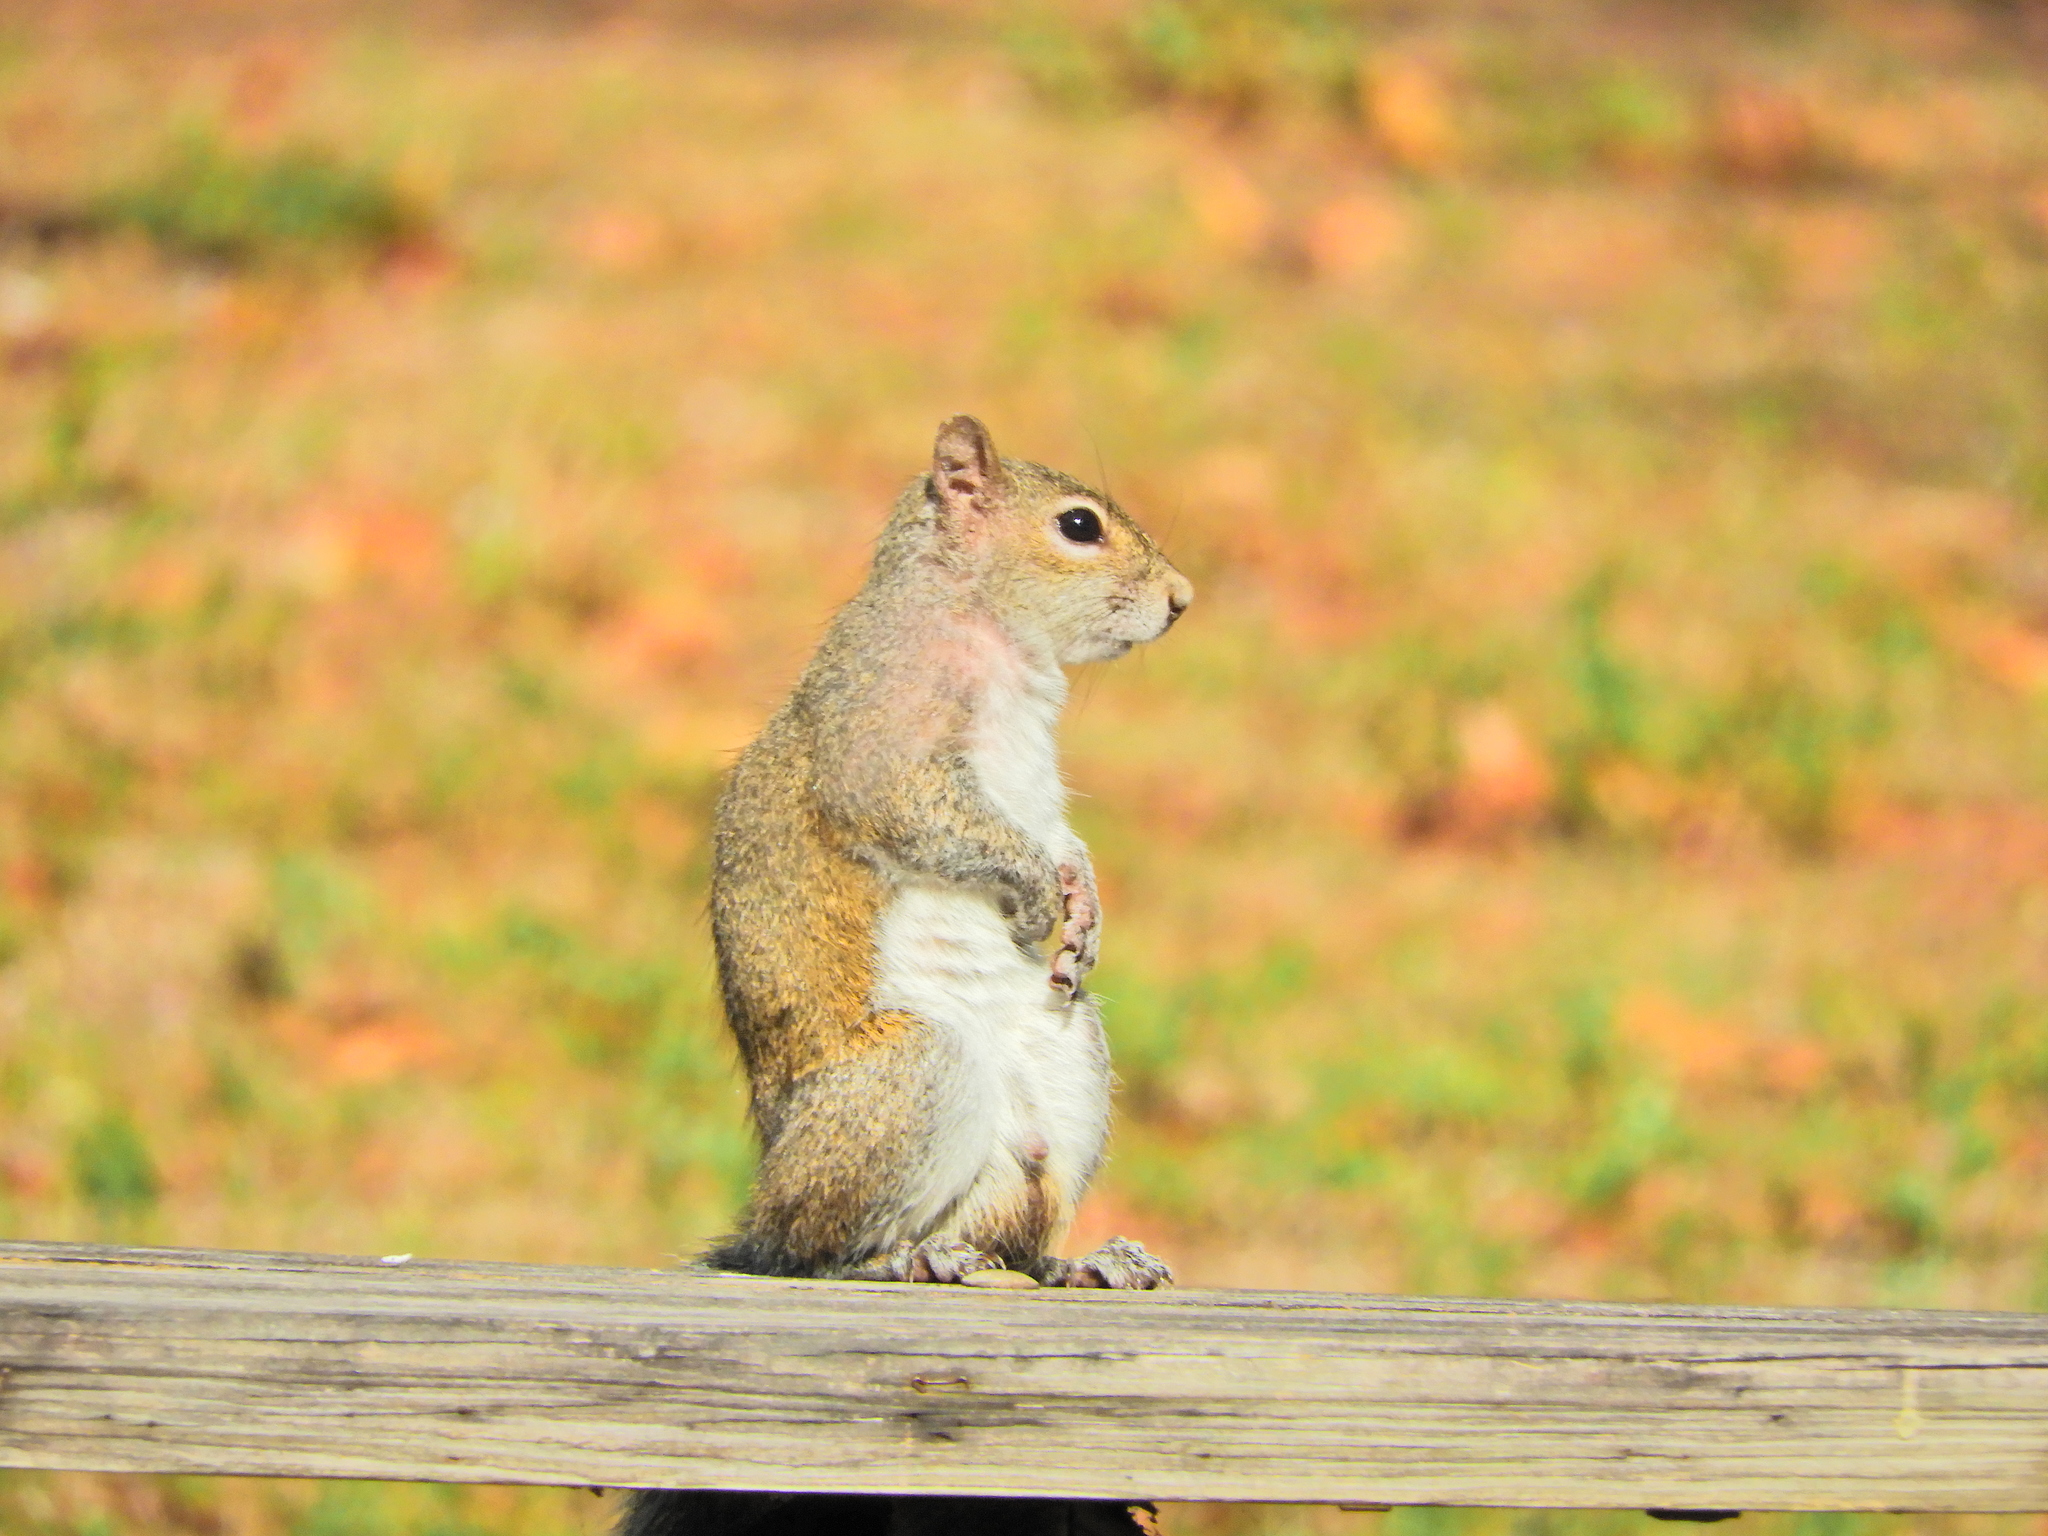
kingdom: Animalia
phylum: Chordata
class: Mammalia
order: Rodentia
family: Sciuridae
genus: Sciurus
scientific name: Sciurus carolinensis
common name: Eastern gray squirrel
